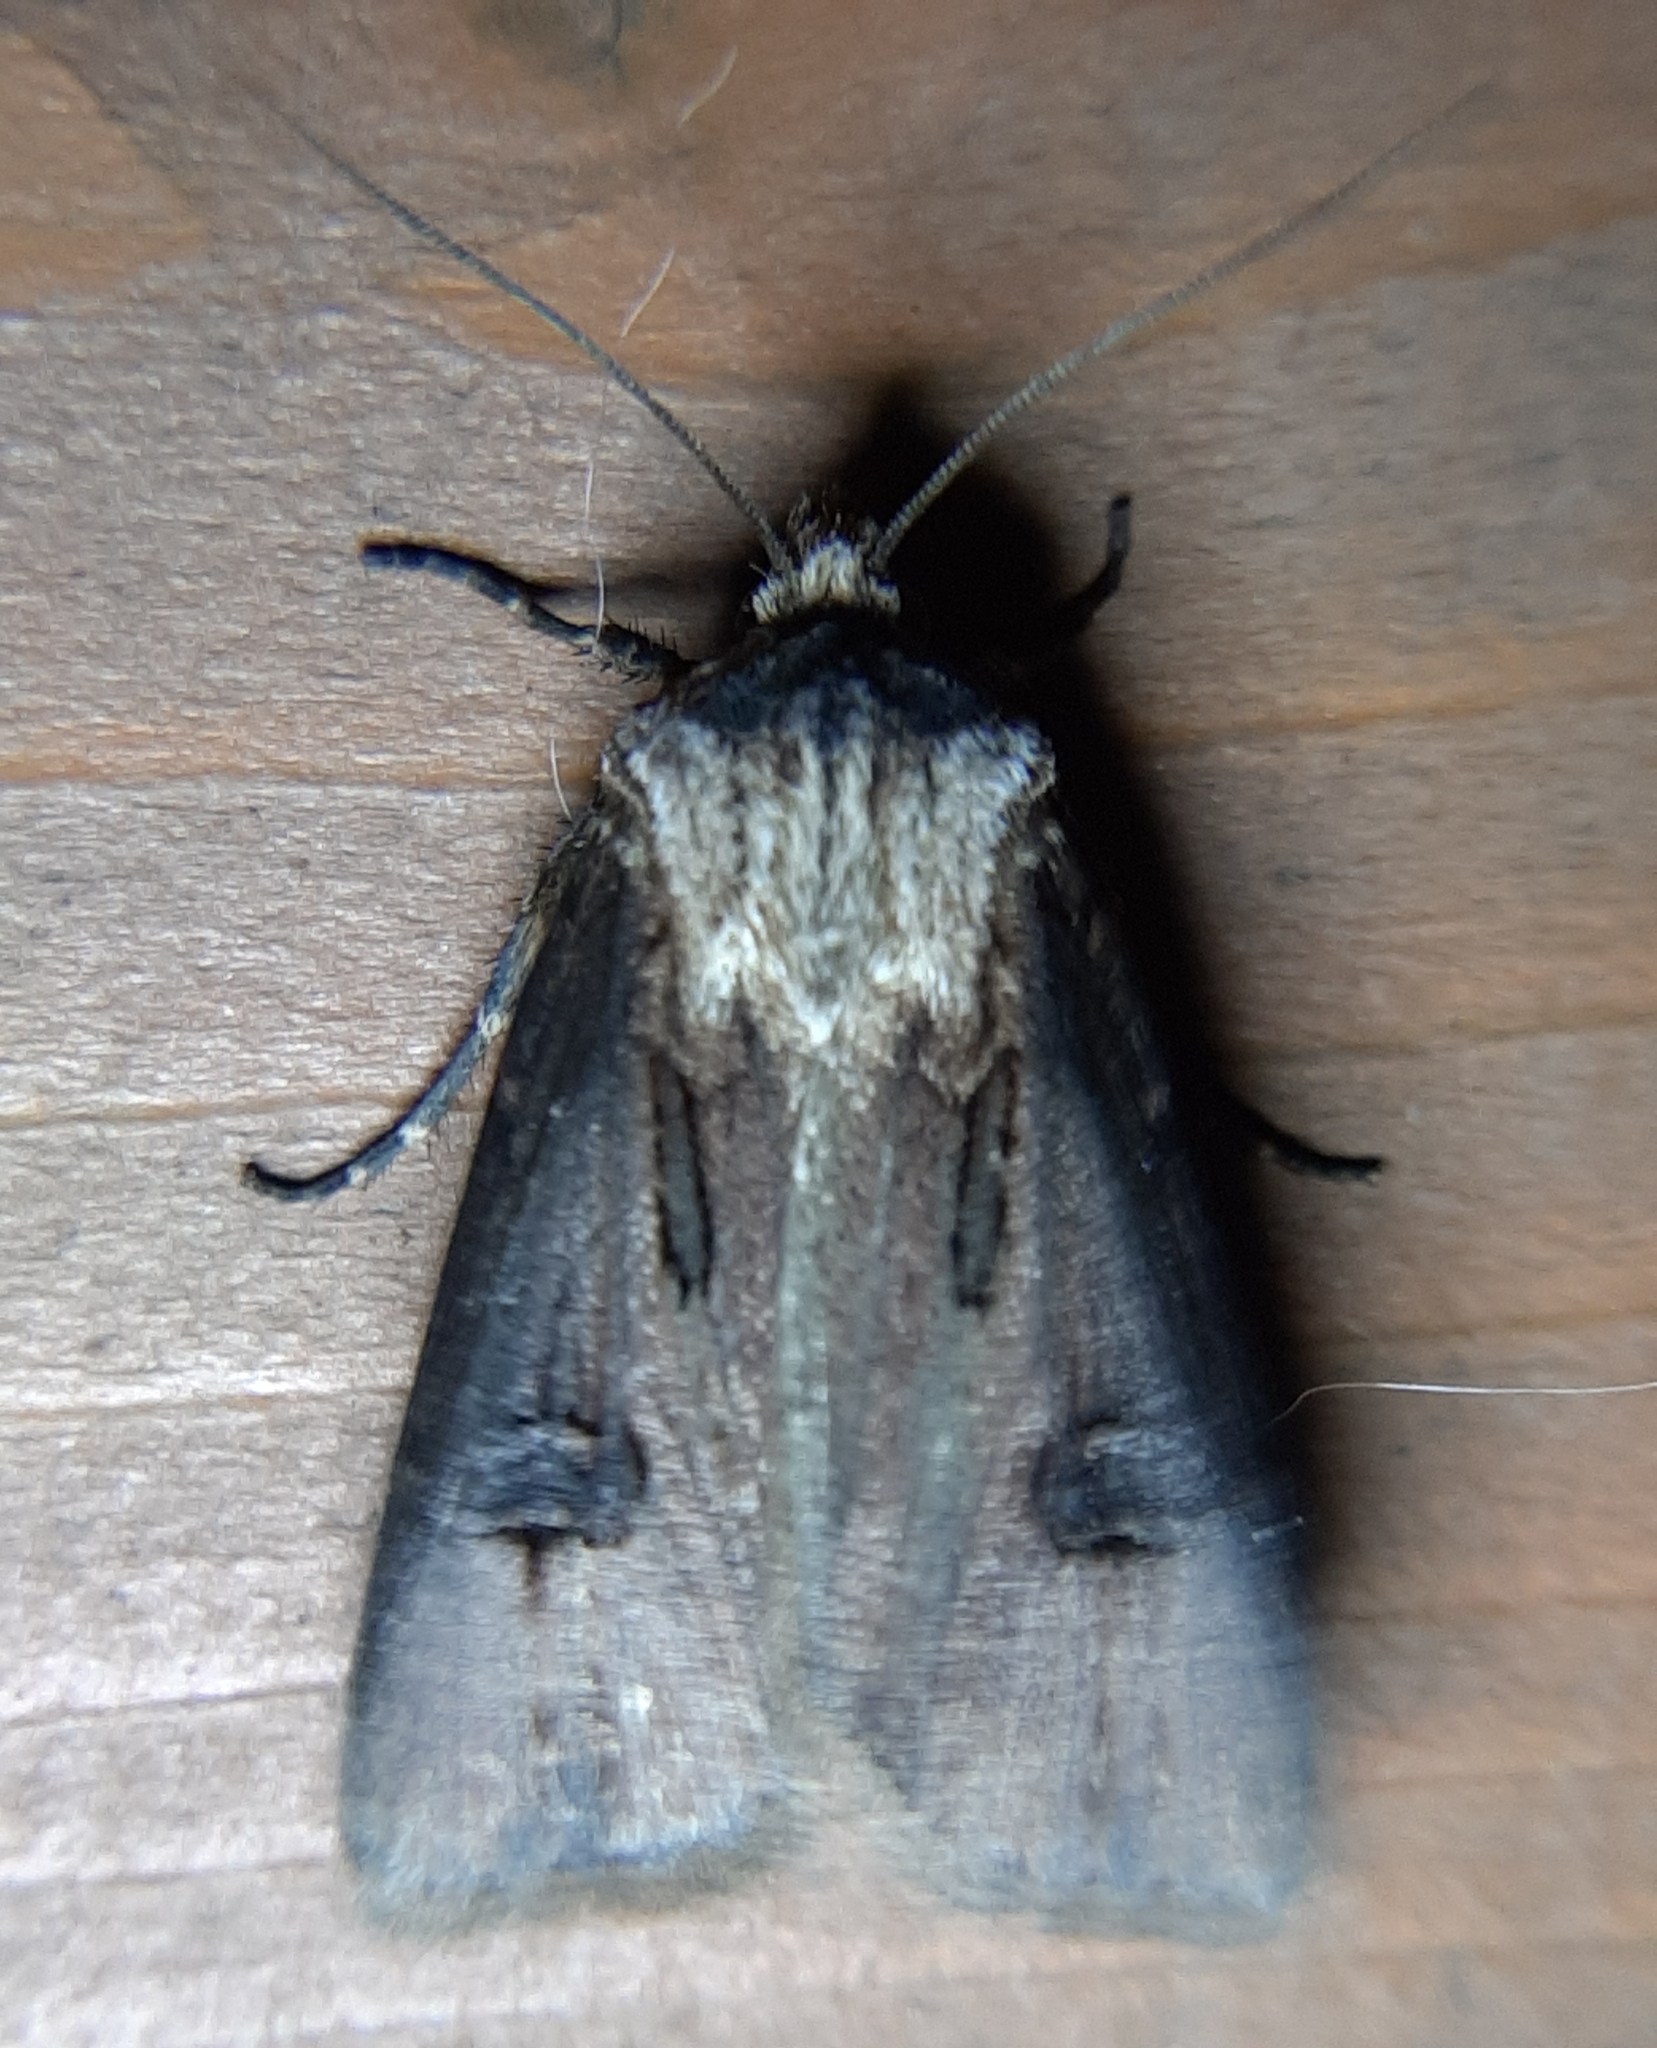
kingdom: Animalia
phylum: Arthropoda
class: Insecta
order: Lepidoptera
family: Noctuidae
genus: Agrotis
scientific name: Agrotis venerabilis
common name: Venerable dart
